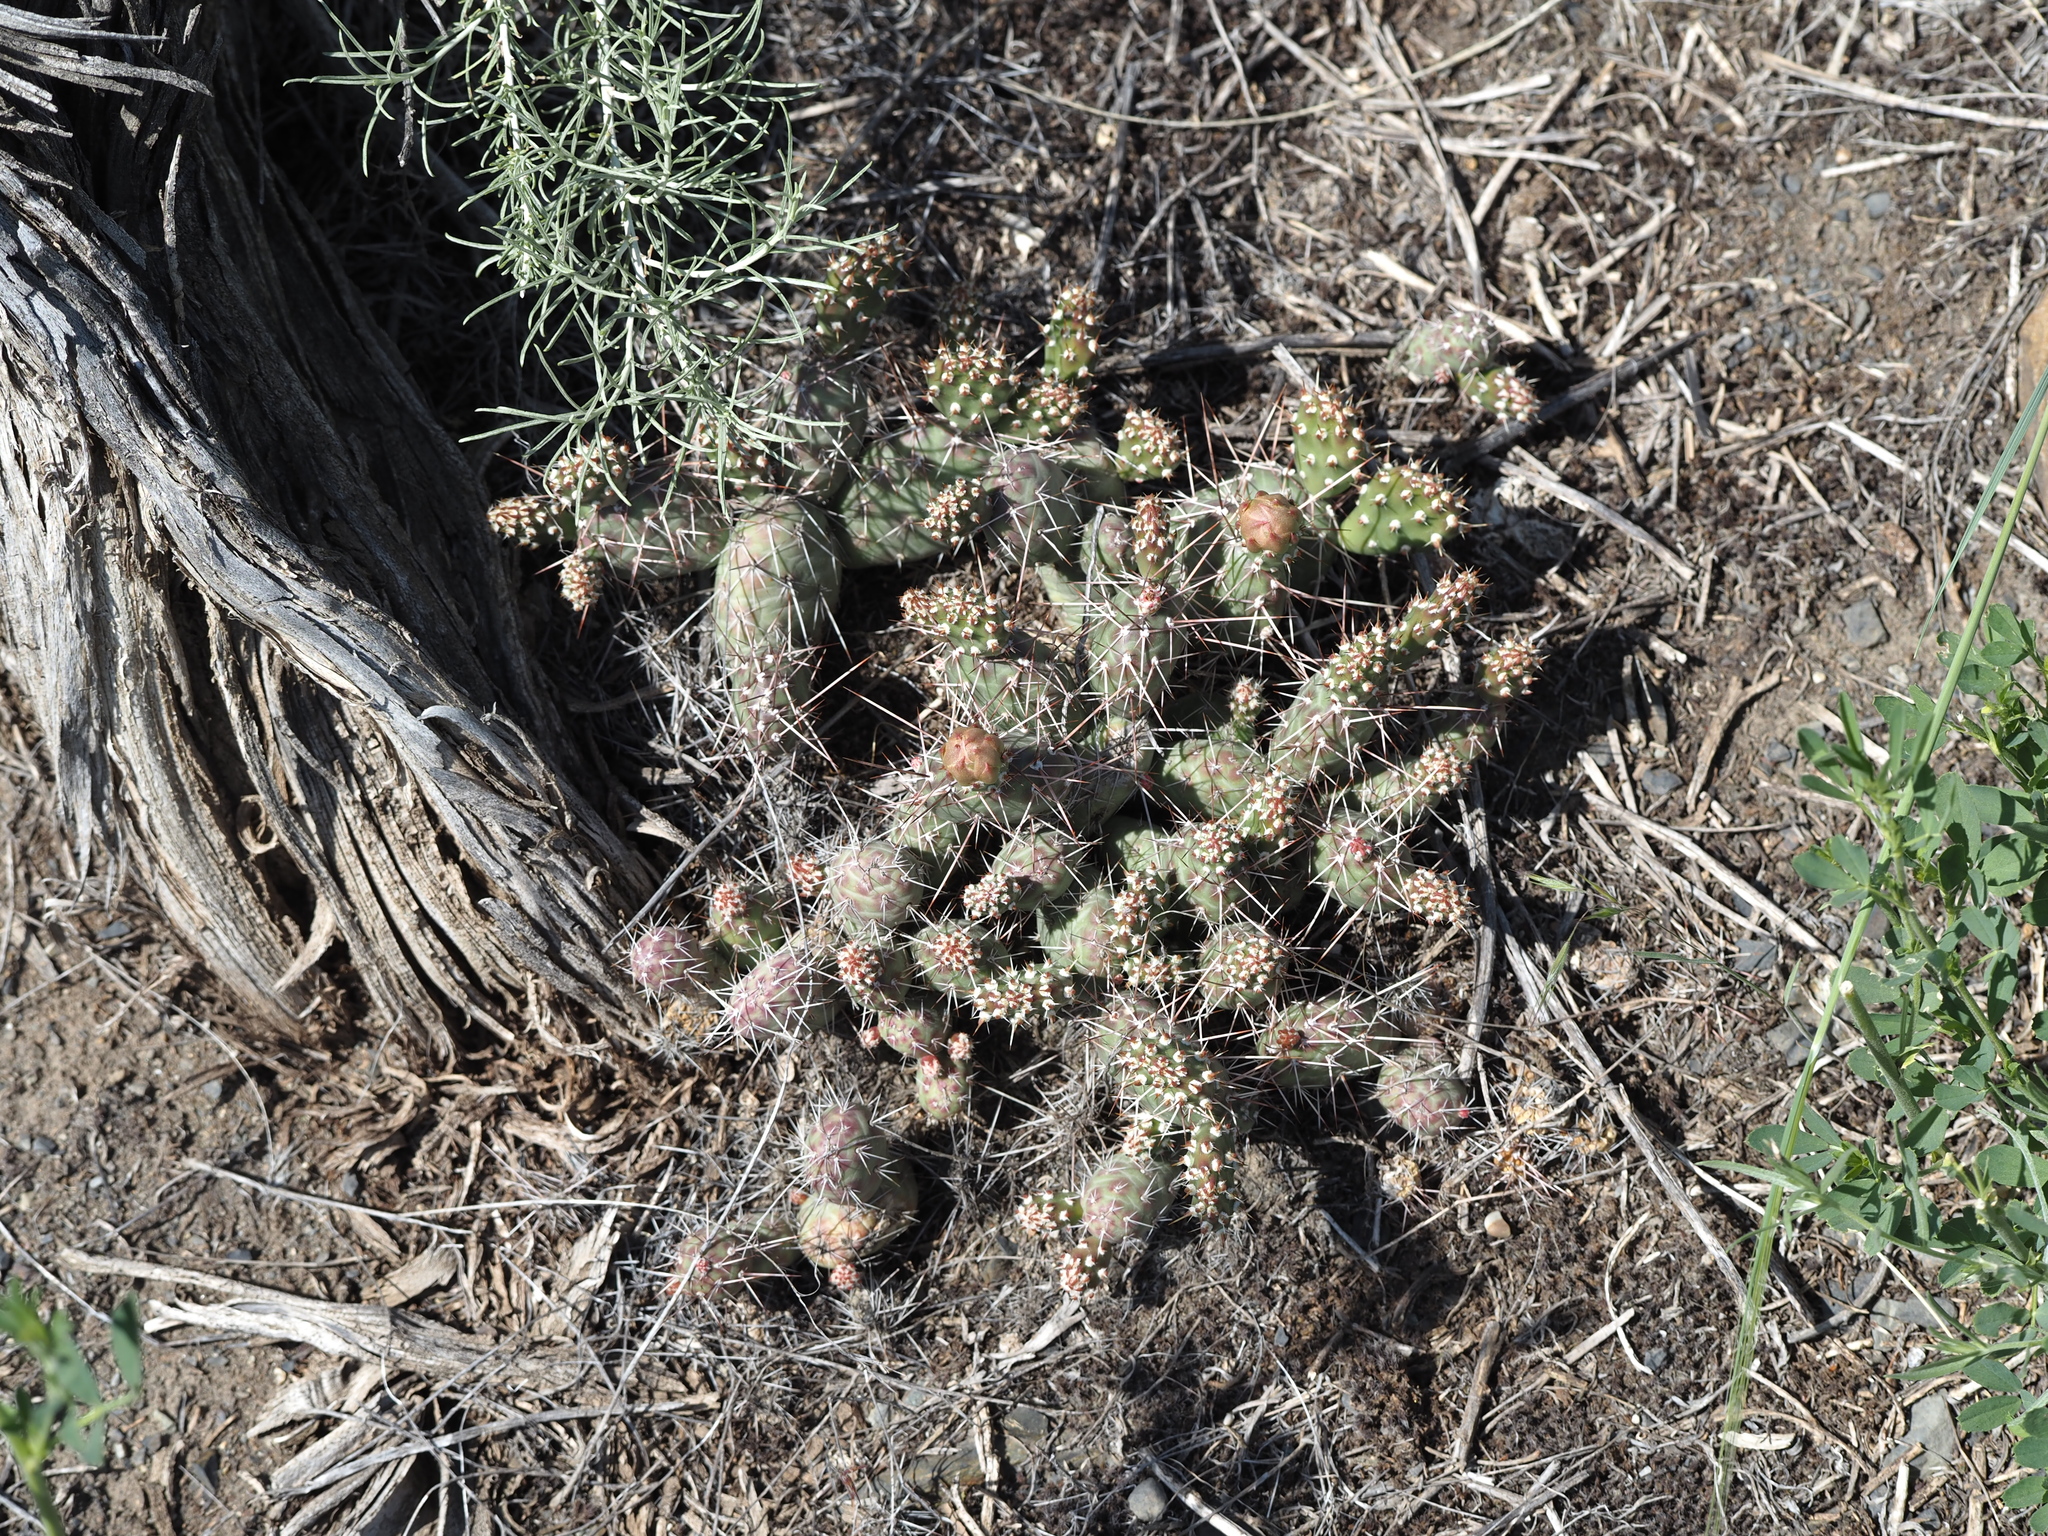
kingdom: Plantae
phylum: Tracheophyta
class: Magnoliopsida
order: Caryophyllales
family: Cactaceae
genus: Opuntia
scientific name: Opuntia fragilis
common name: Brittle cactus
